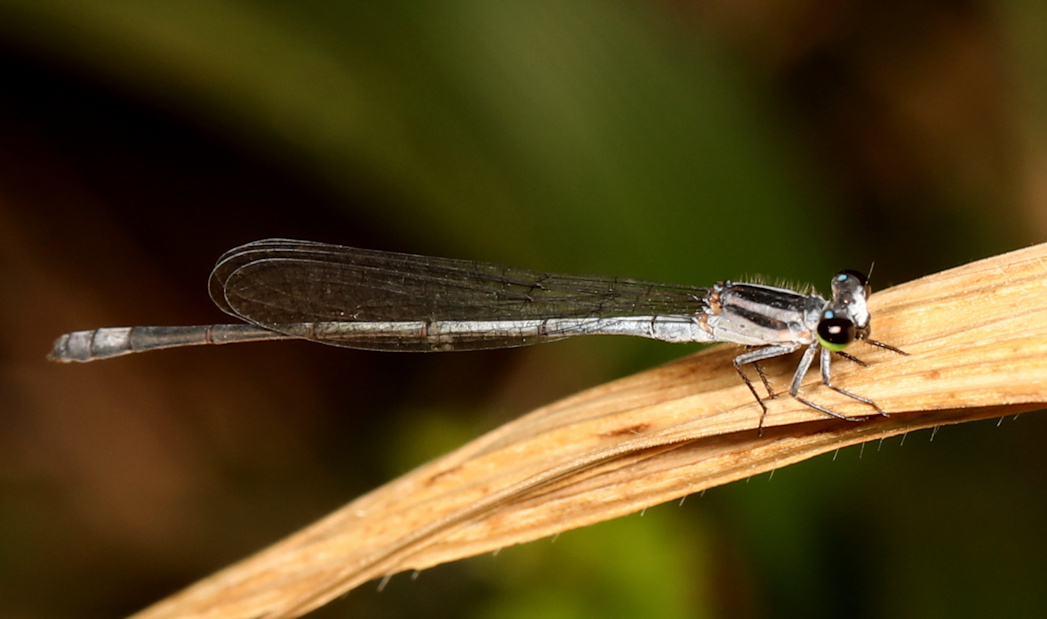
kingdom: Animalia
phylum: Arthropoda
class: Insecta
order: Odonata
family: Coenagrionidae
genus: Pseudagrion
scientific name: Pseudagrion kersteni
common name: Powder-faced sprite
